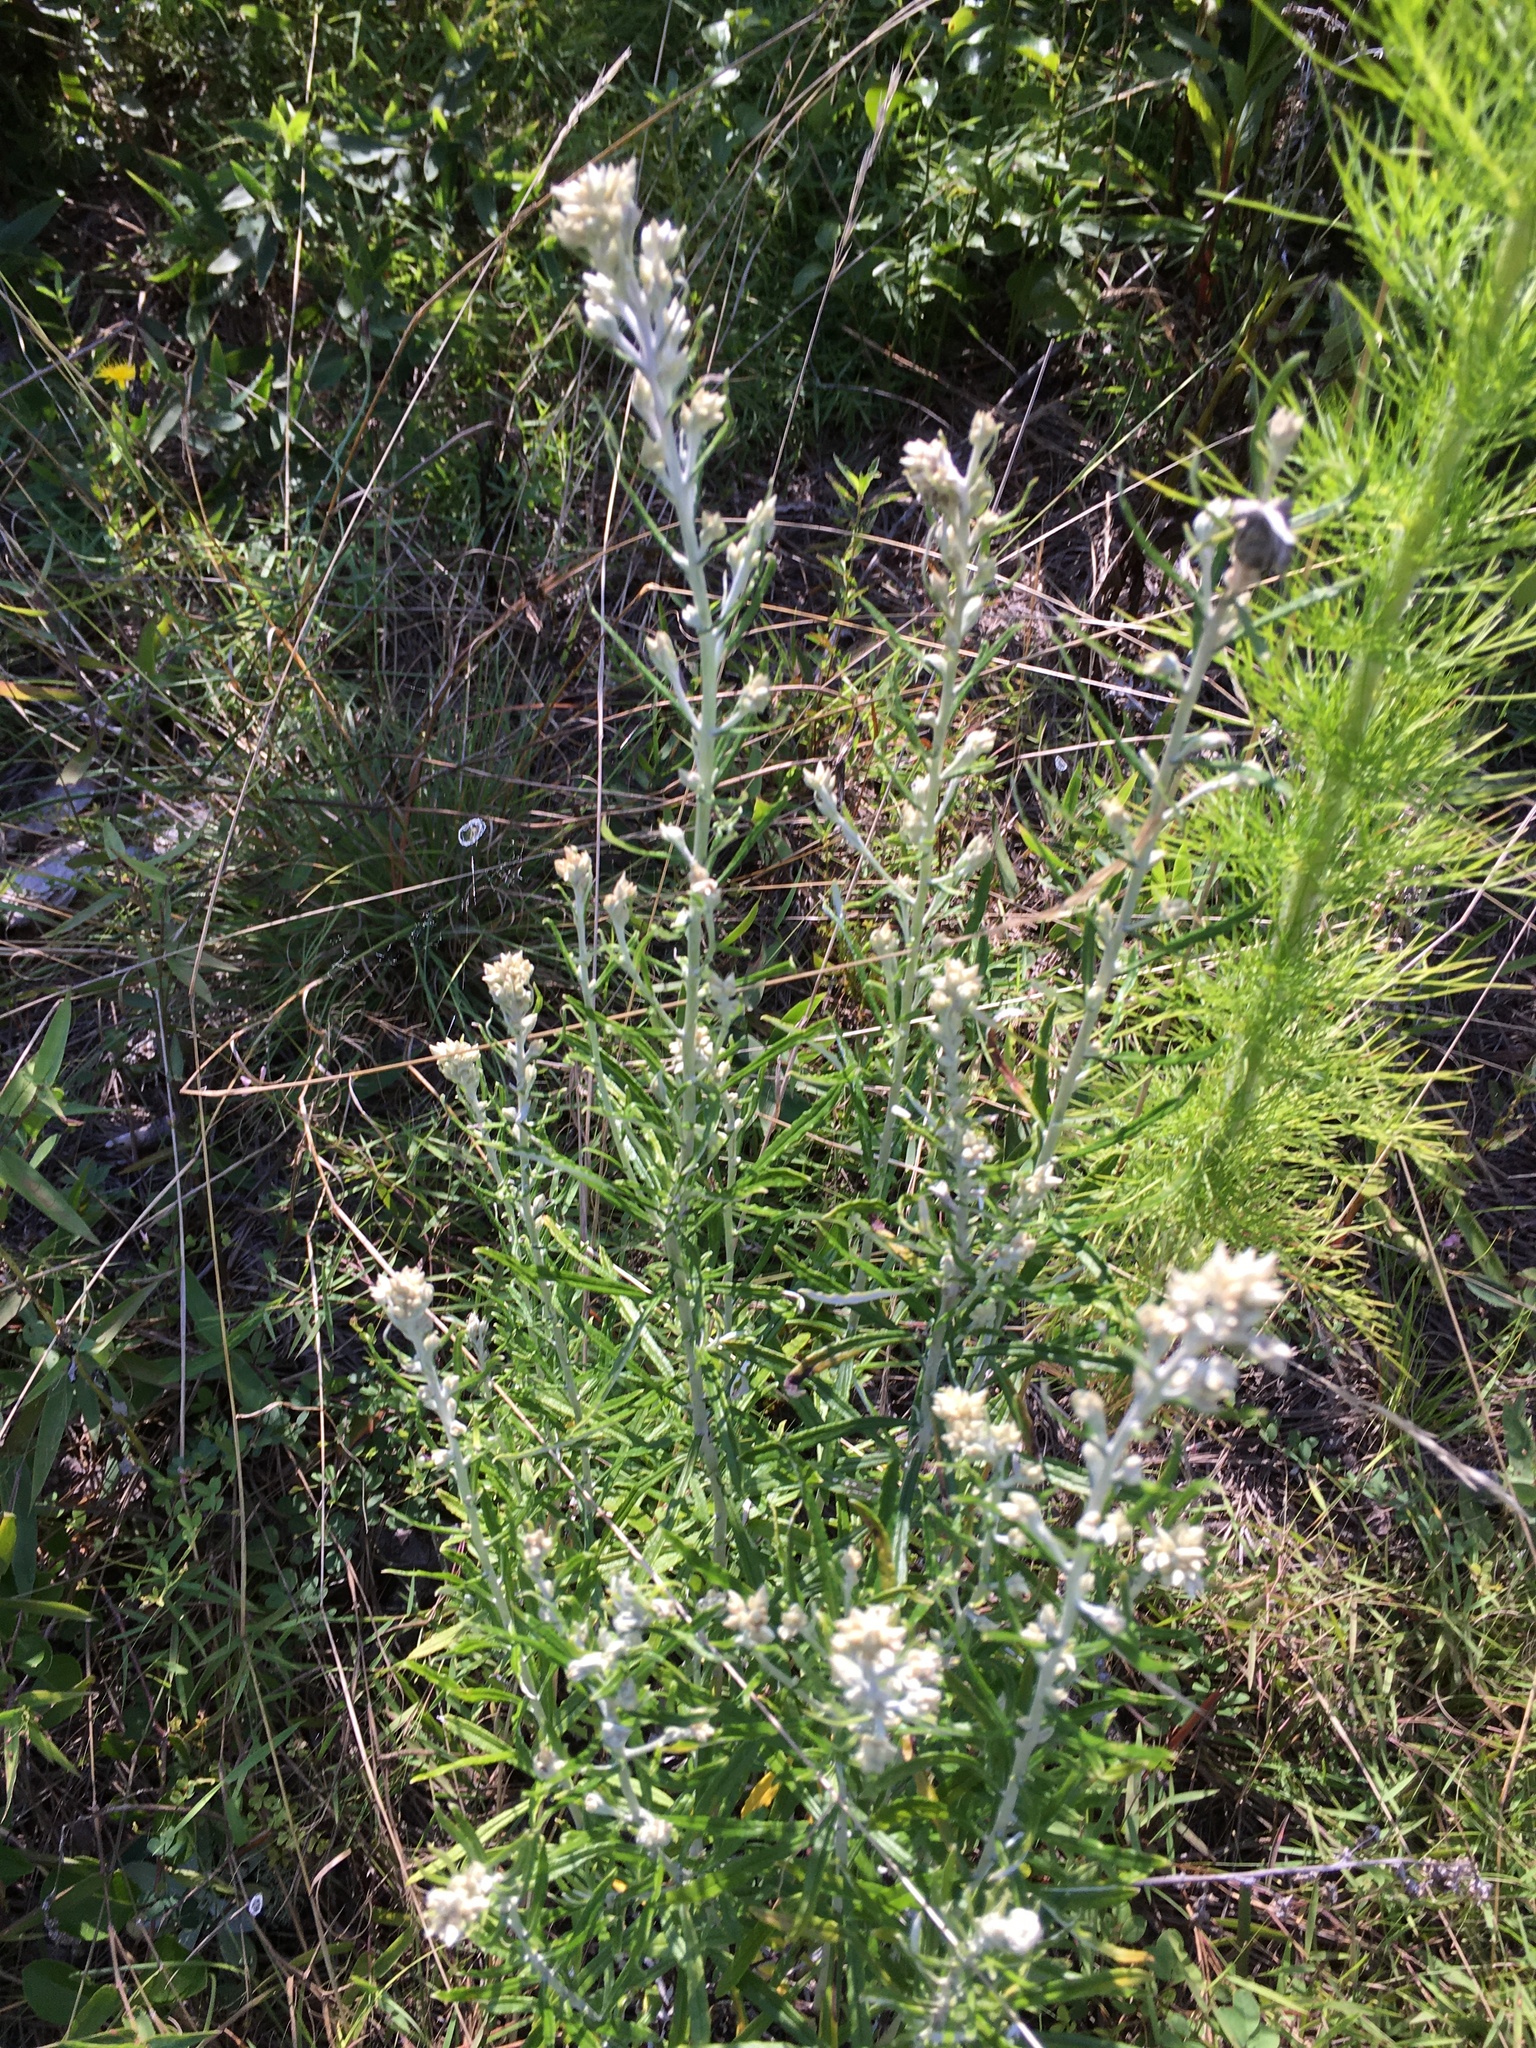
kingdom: Plantae
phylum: Tracheophyta
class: Magnoliopsida
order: Asterales
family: Asteraceae
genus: Pseudognaphalium
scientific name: Pseudognaphalium obtusifolium
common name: Eastern rabbit-tobacco
